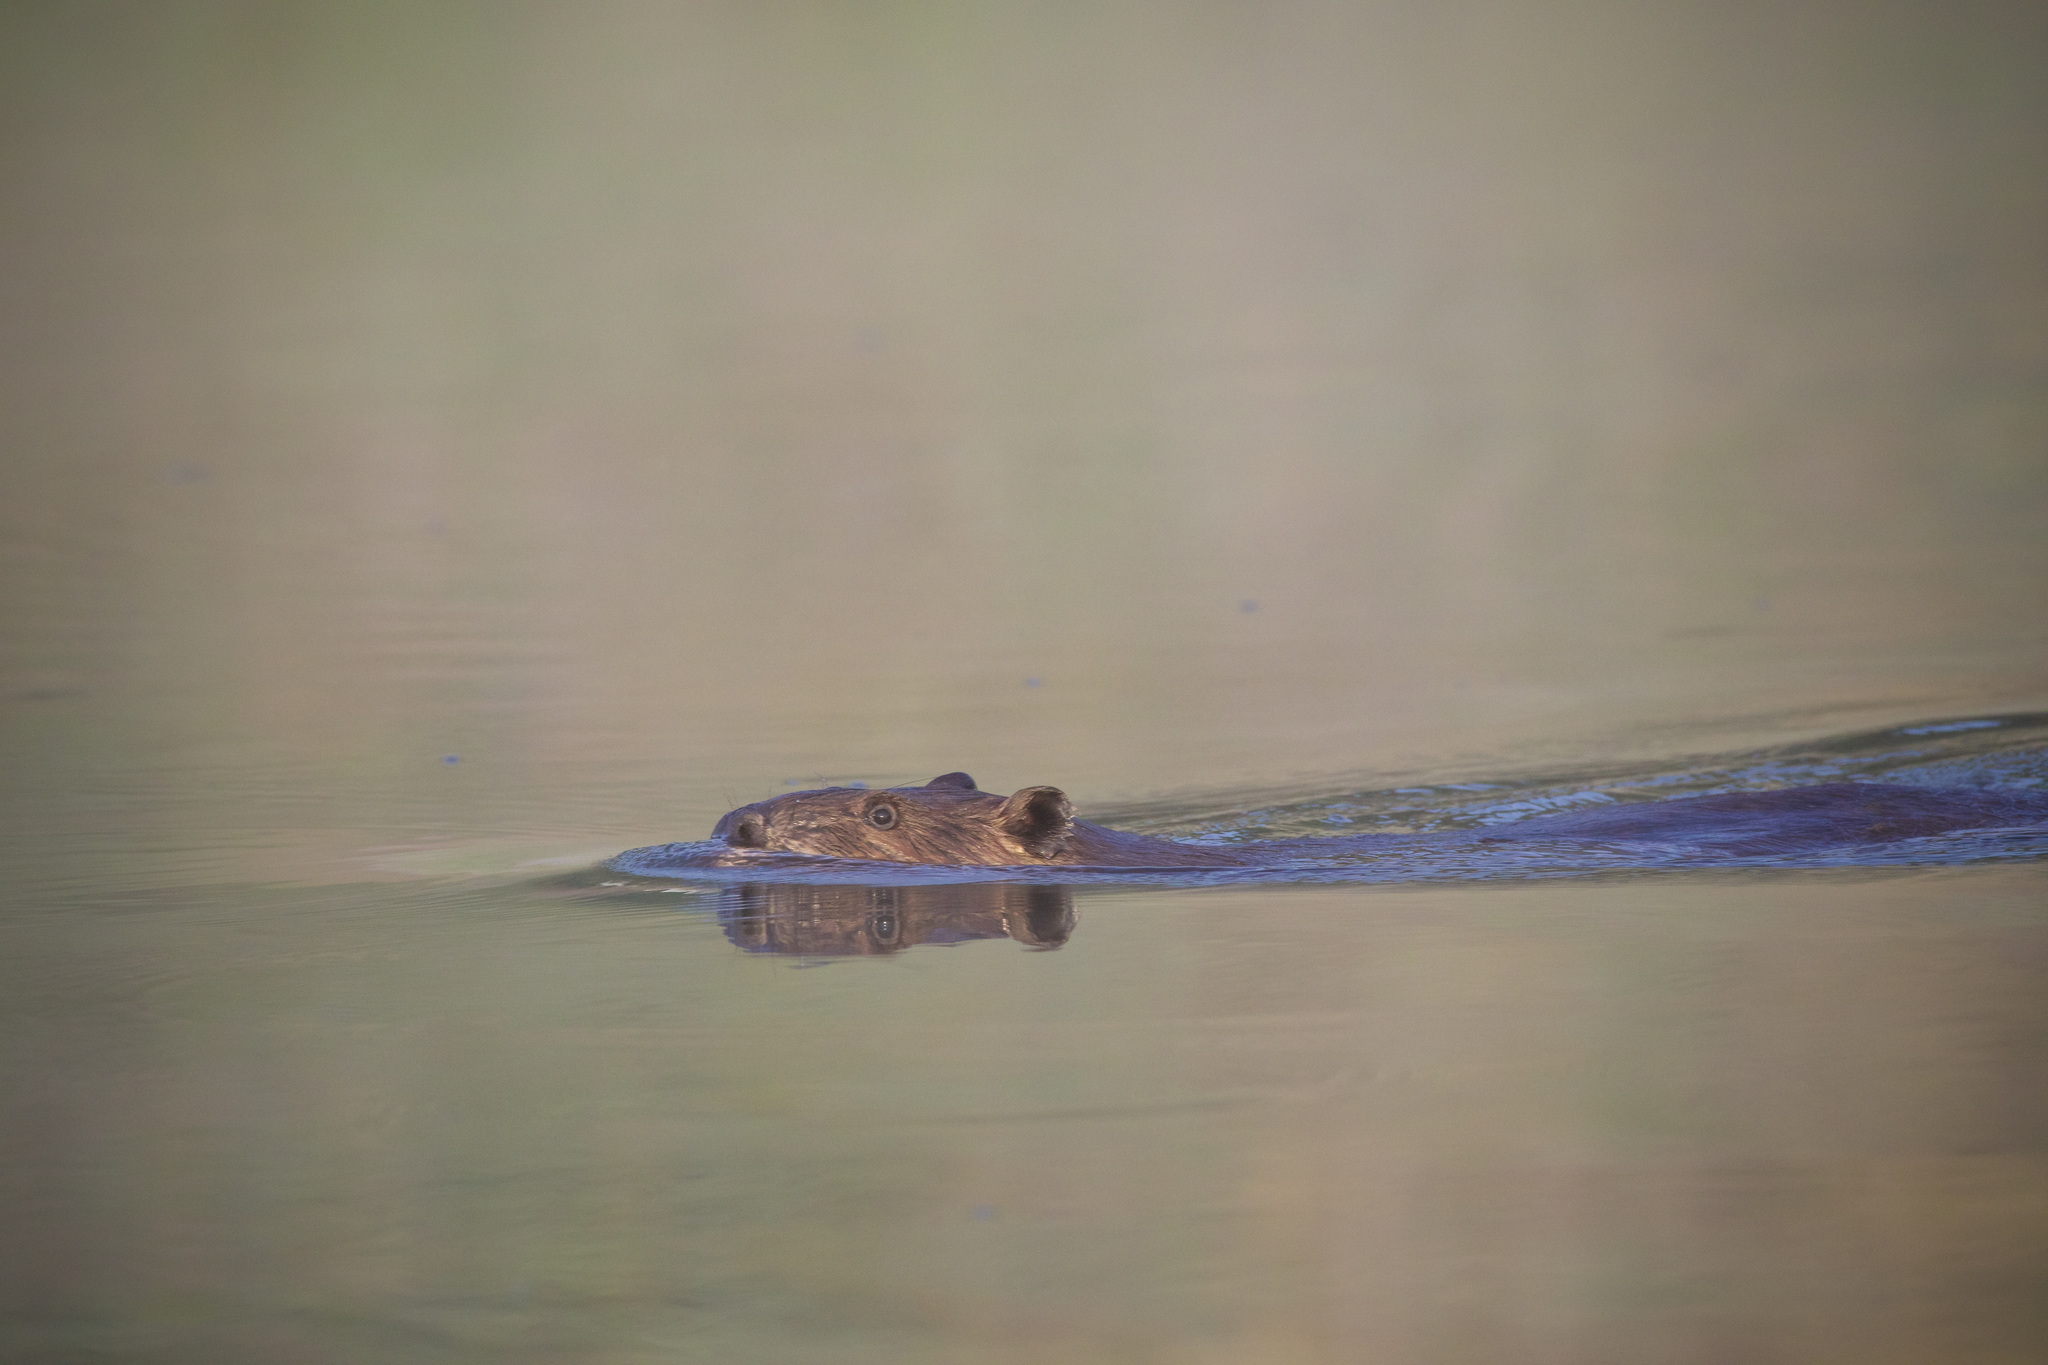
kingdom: Animalia
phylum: Chordata
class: Mammalia
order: Rodentia
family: Castoridae
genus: Castor
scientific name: Castor canadensis
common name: American beaver
